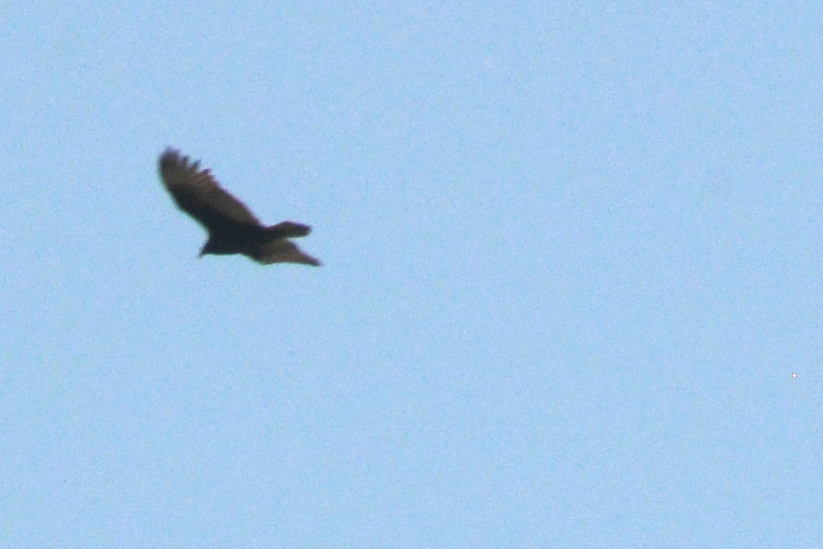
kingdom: Animalia
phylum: Chordata
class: Aves
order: Accipitriformes
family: Cathartidae
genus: Cathartes
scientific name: Cathartes aura
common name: Turkey vulture
